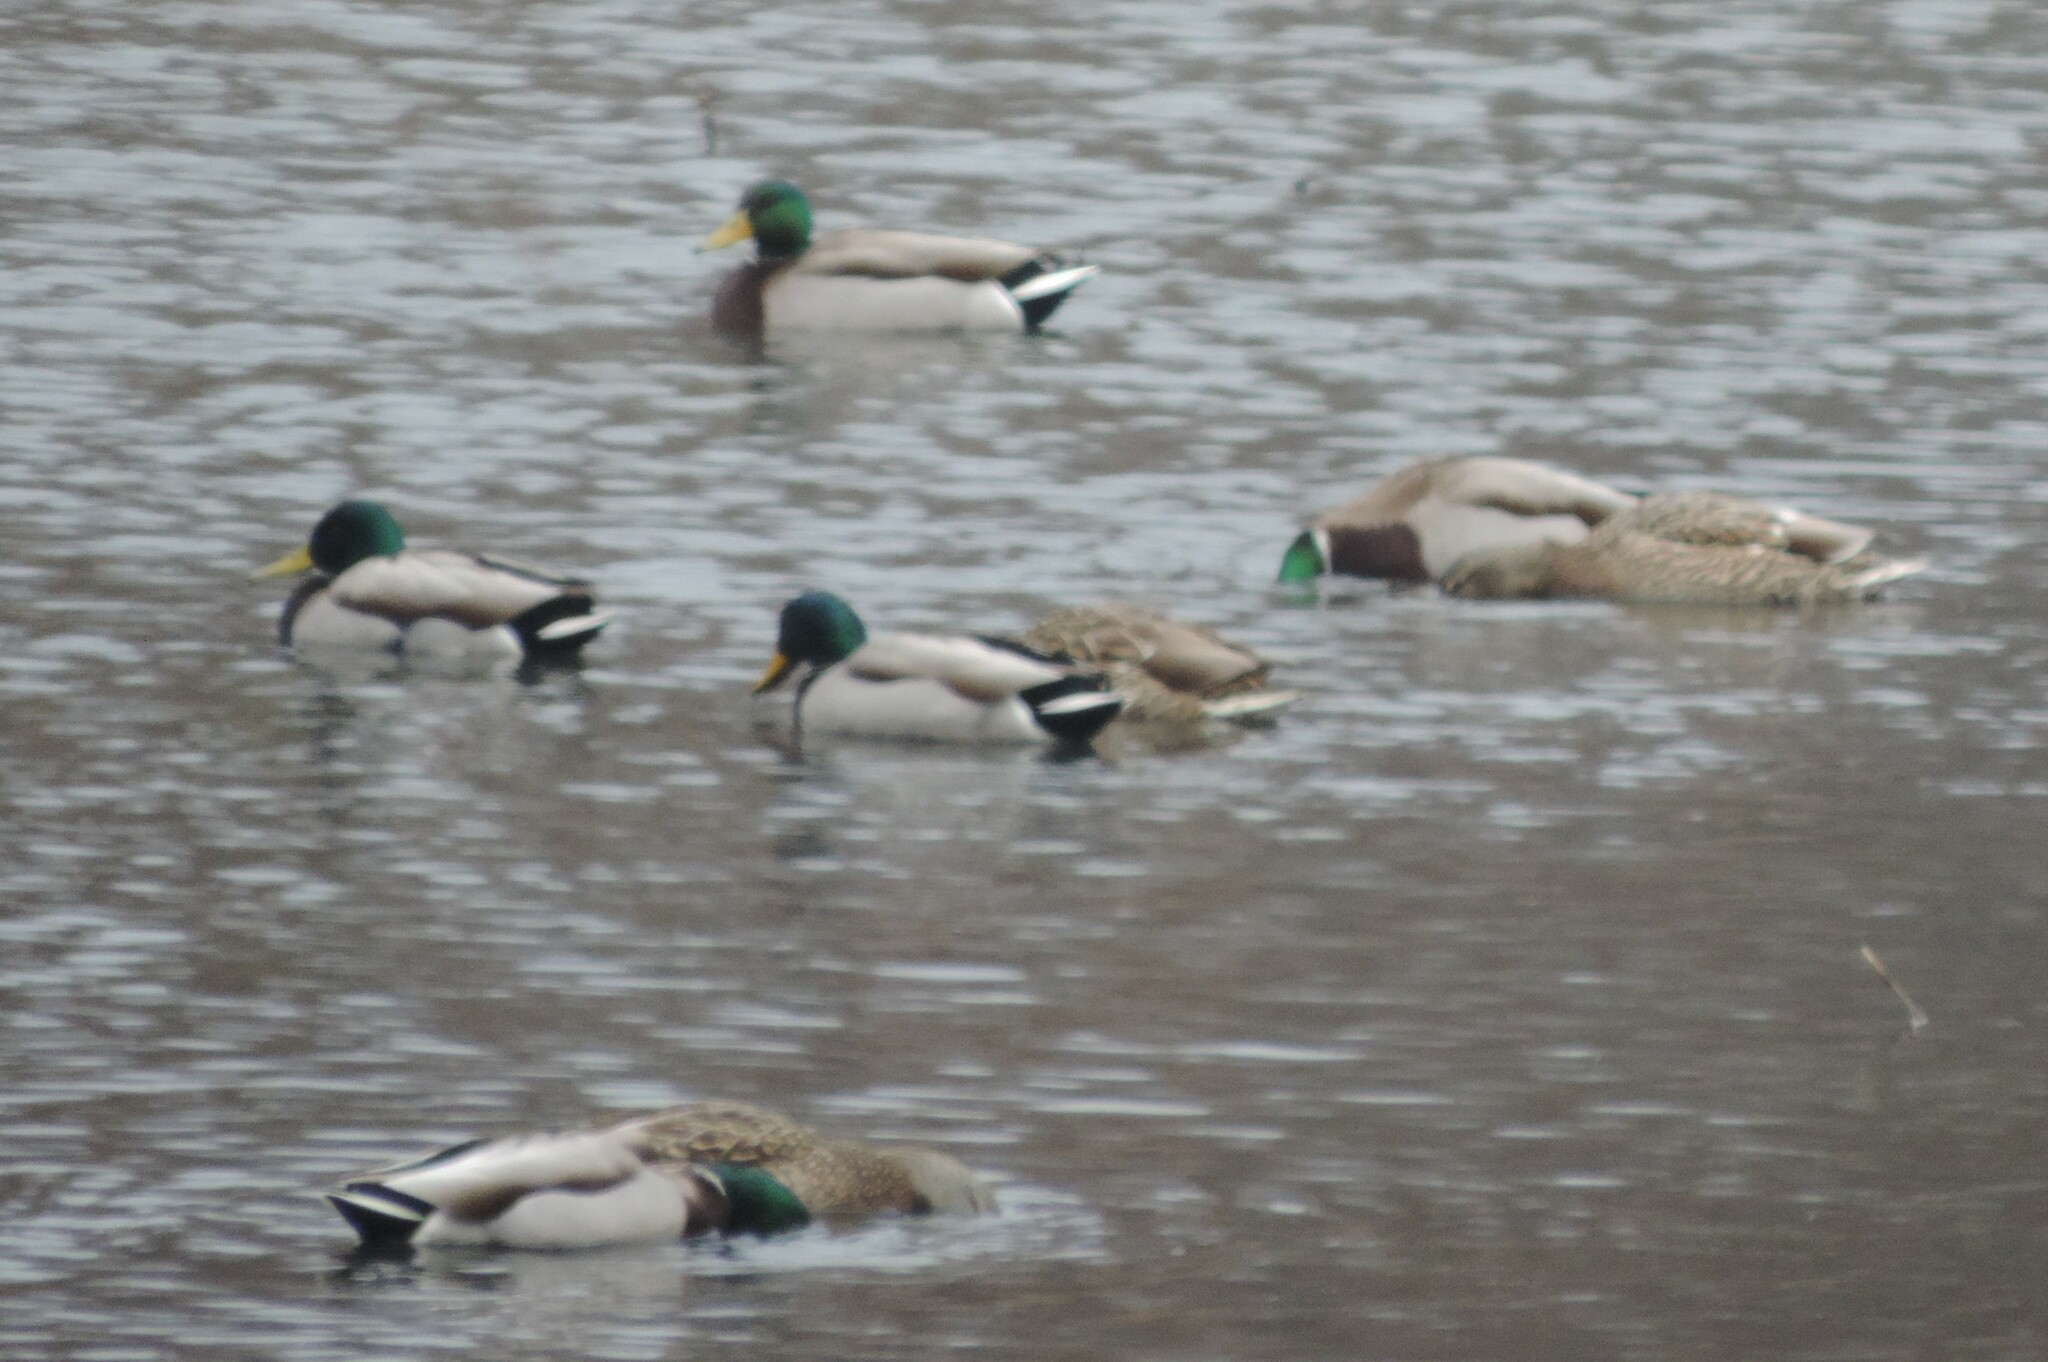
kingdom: Animalia
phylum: Chordata
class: Aves
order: Anseriformes
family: Anatidae
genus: Anas
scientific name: Anas platyrhynchos
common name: Mallard
